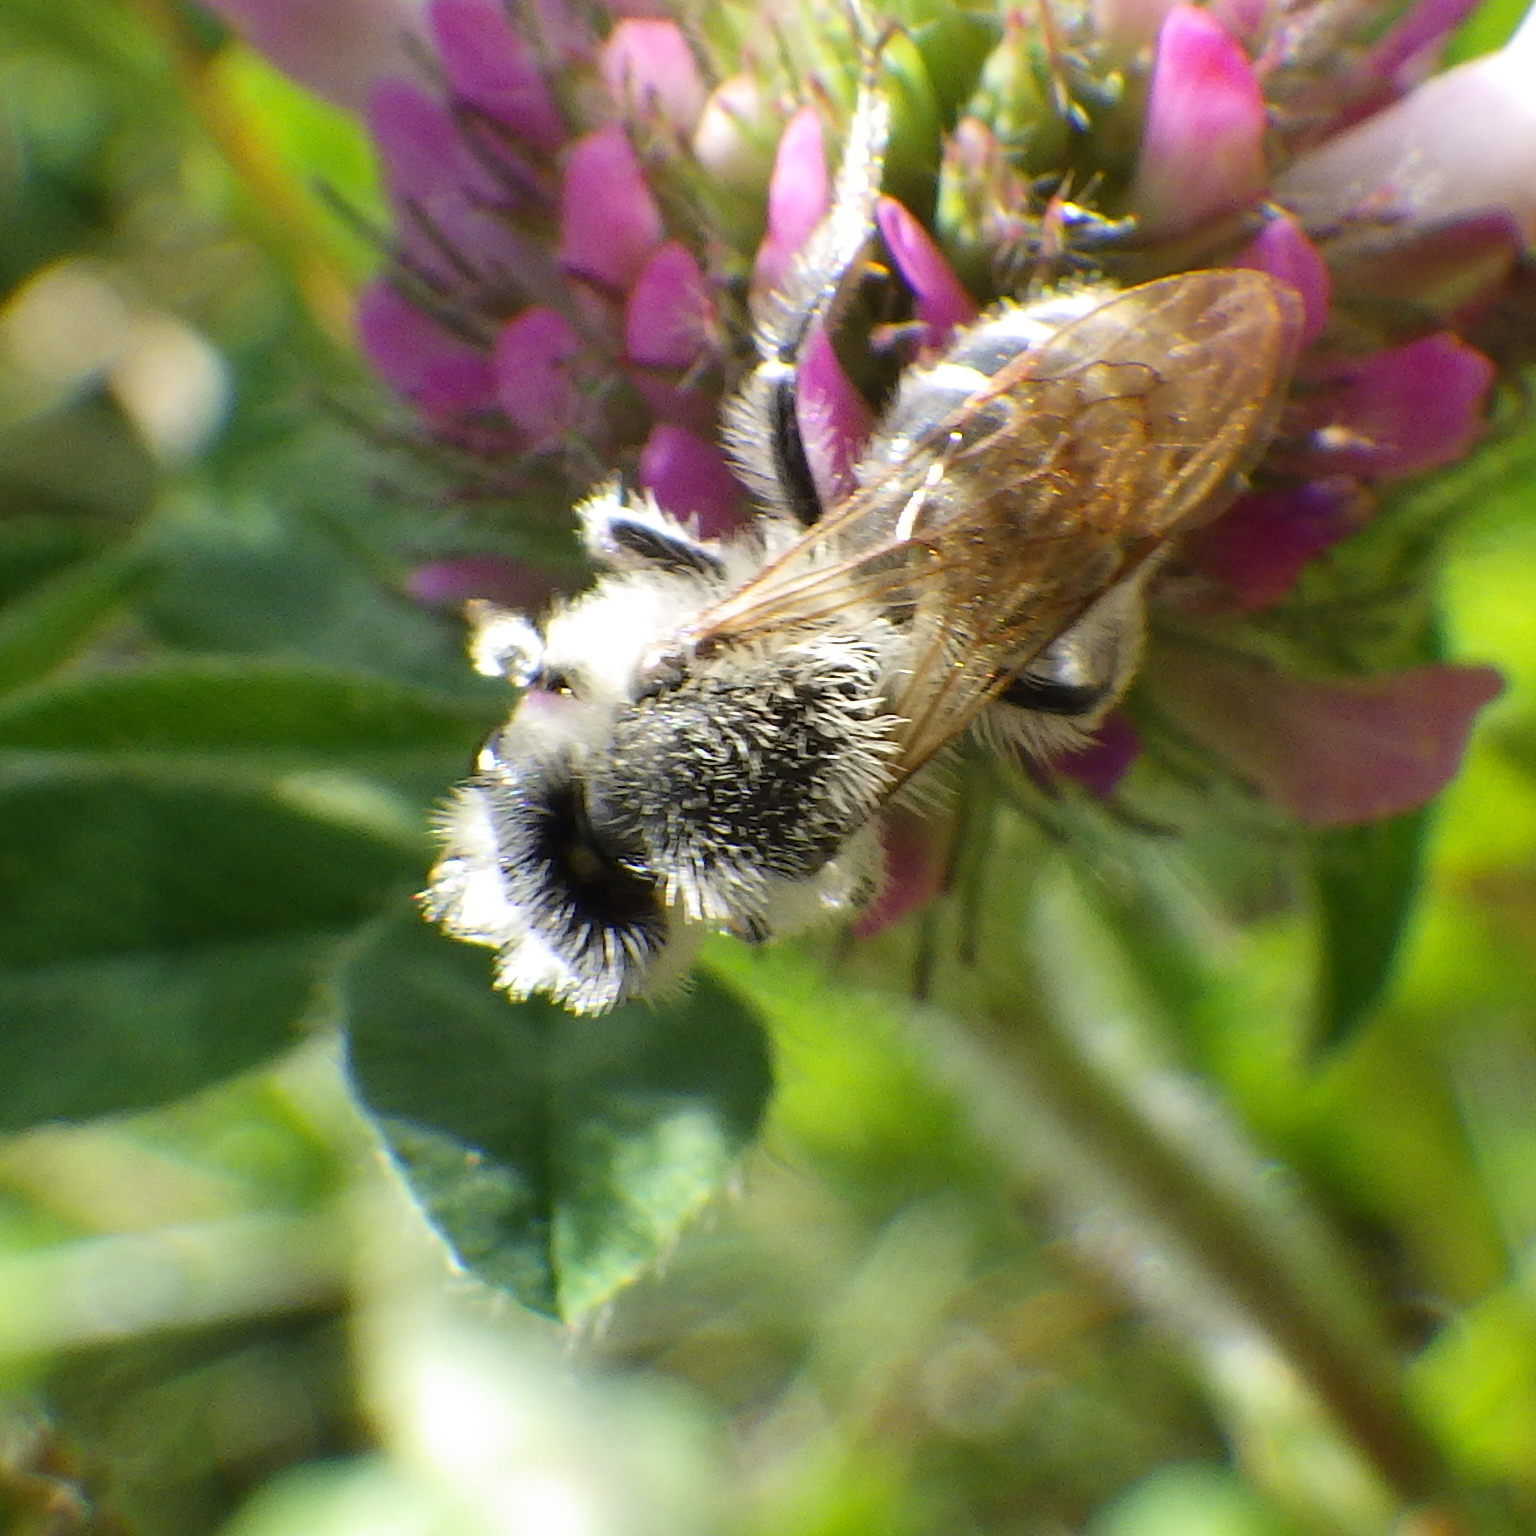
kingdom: Animalia
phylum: Arthropoda
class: Insecta
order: Hymenoptera
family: Andrenidae
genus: Andrena
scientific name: Andrena wilkella
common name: Wilke's mining bee
